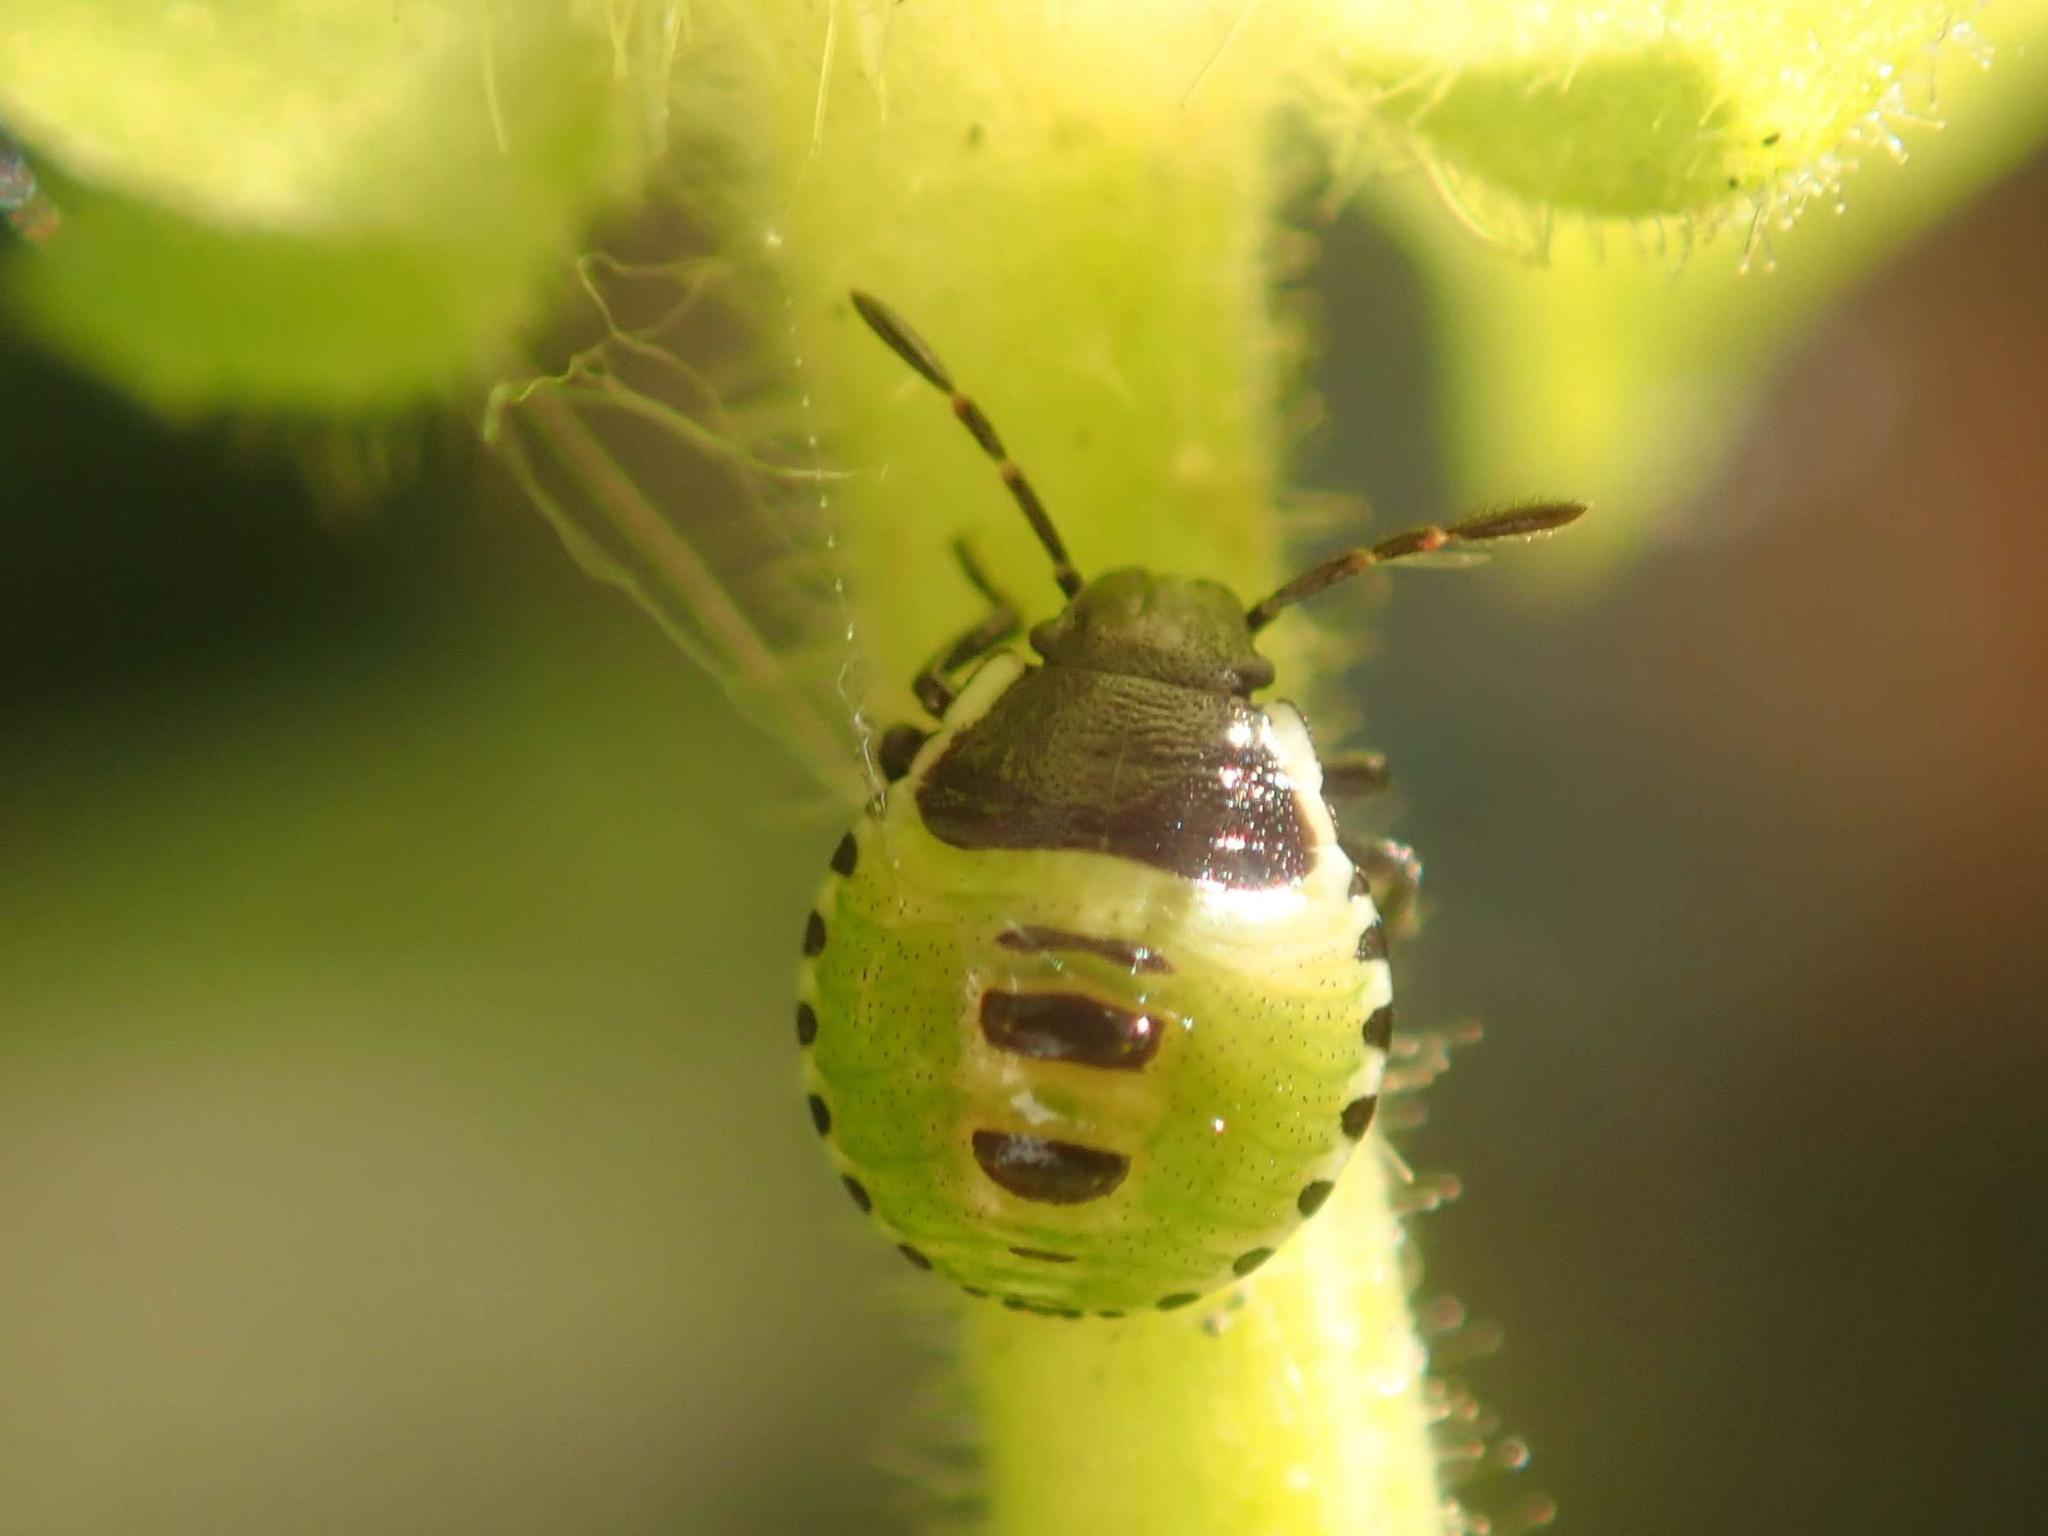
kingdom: Animalia
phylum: Arthropoda
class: Insecta
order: Hemiptera
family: Pentatomidae
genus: Palomena
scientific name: Palomena prasina
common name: Green shieldbug
